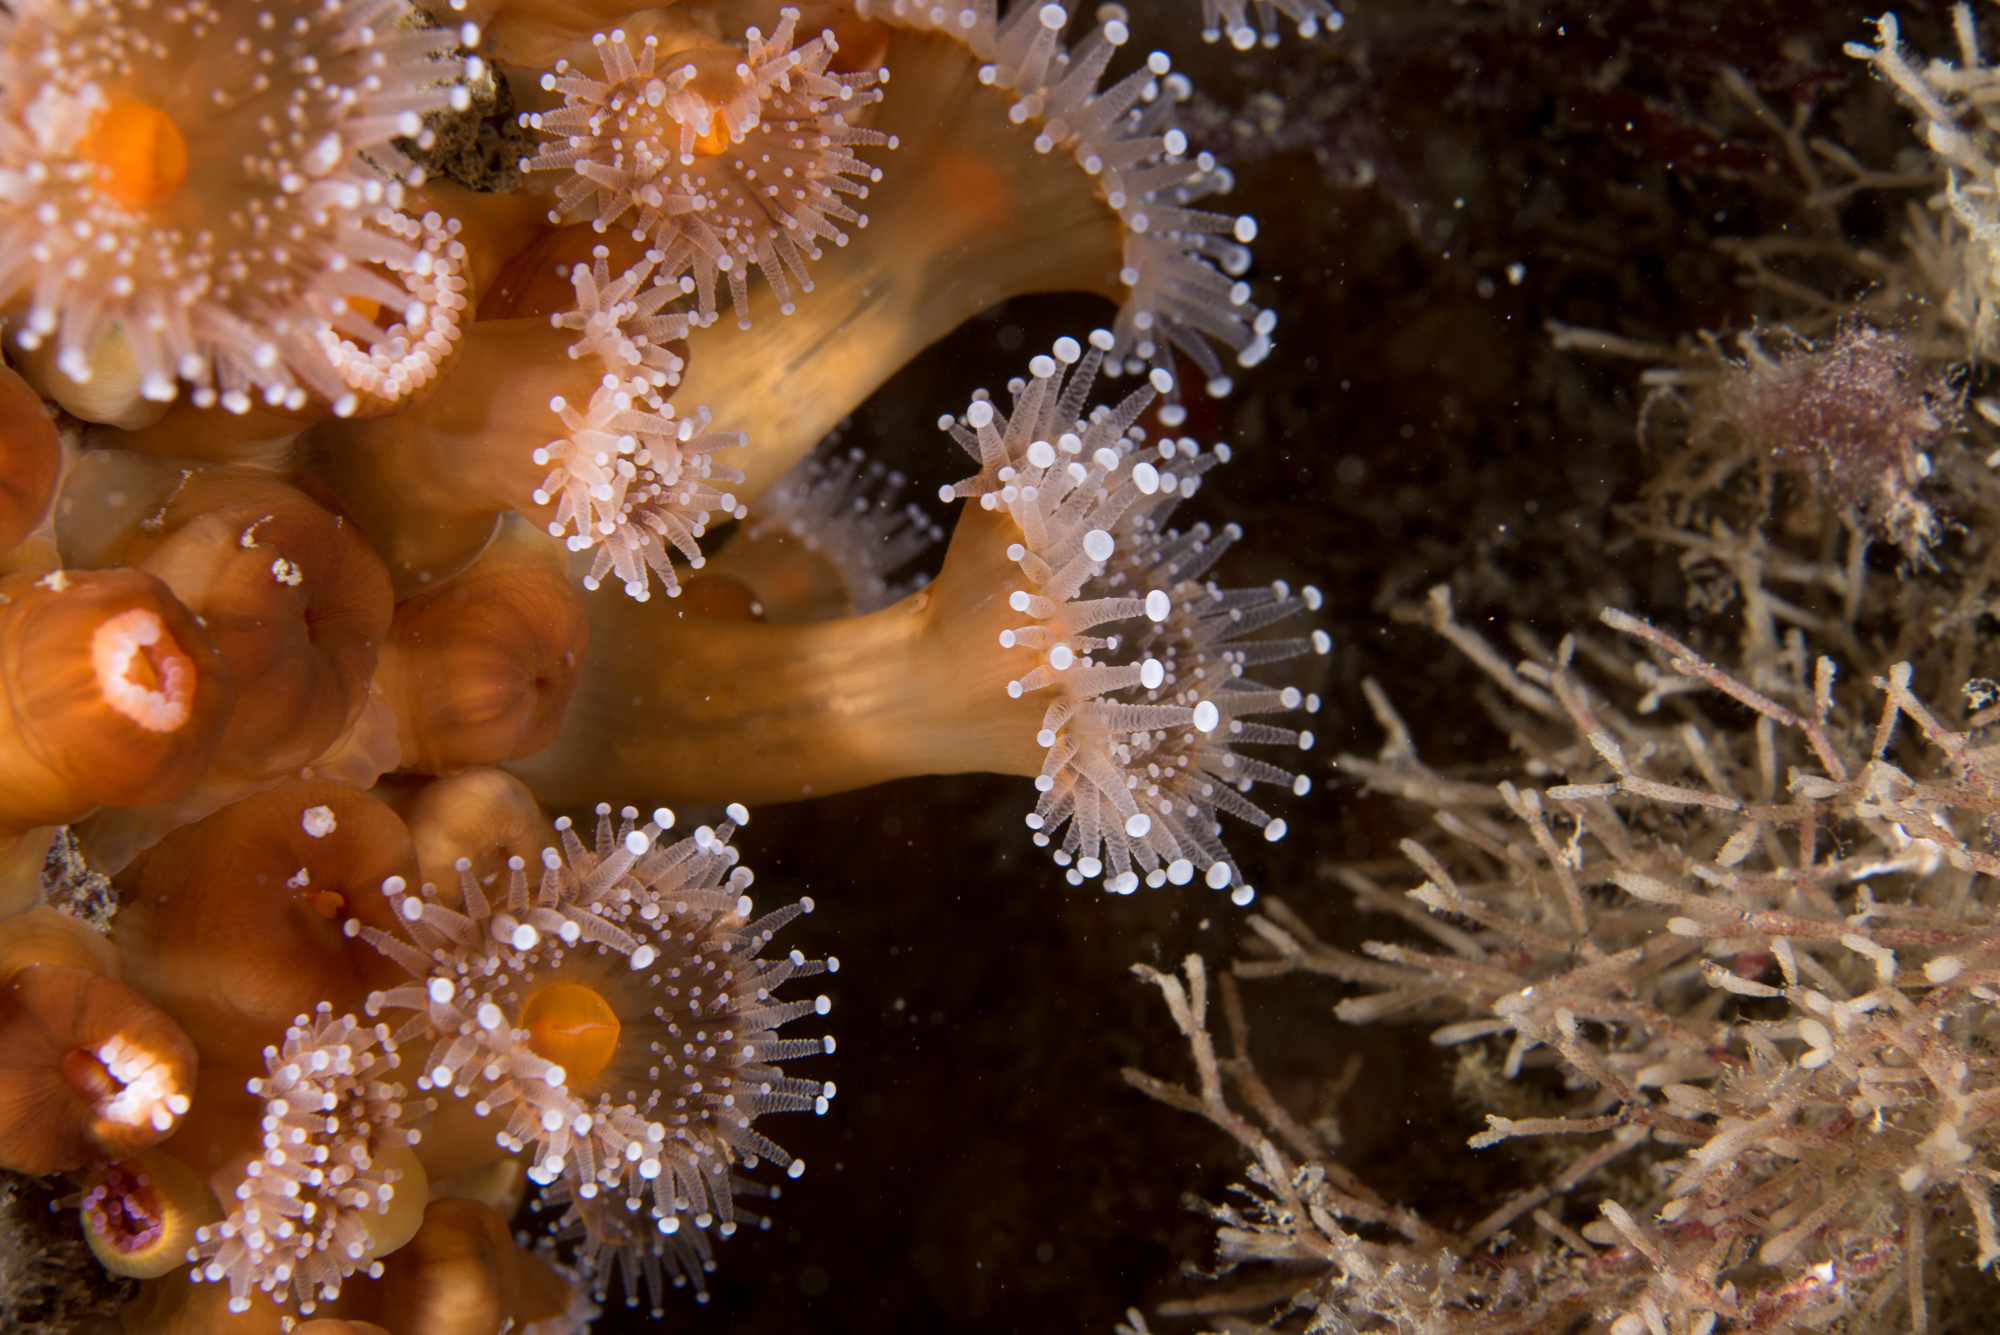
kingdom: Animalia
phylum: Cnidaria
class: Anthozoa
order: Corallimorpharia
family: Corallimorphidae
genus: Corynactis
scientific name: Corynactis viridis
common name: Jewel anemone
